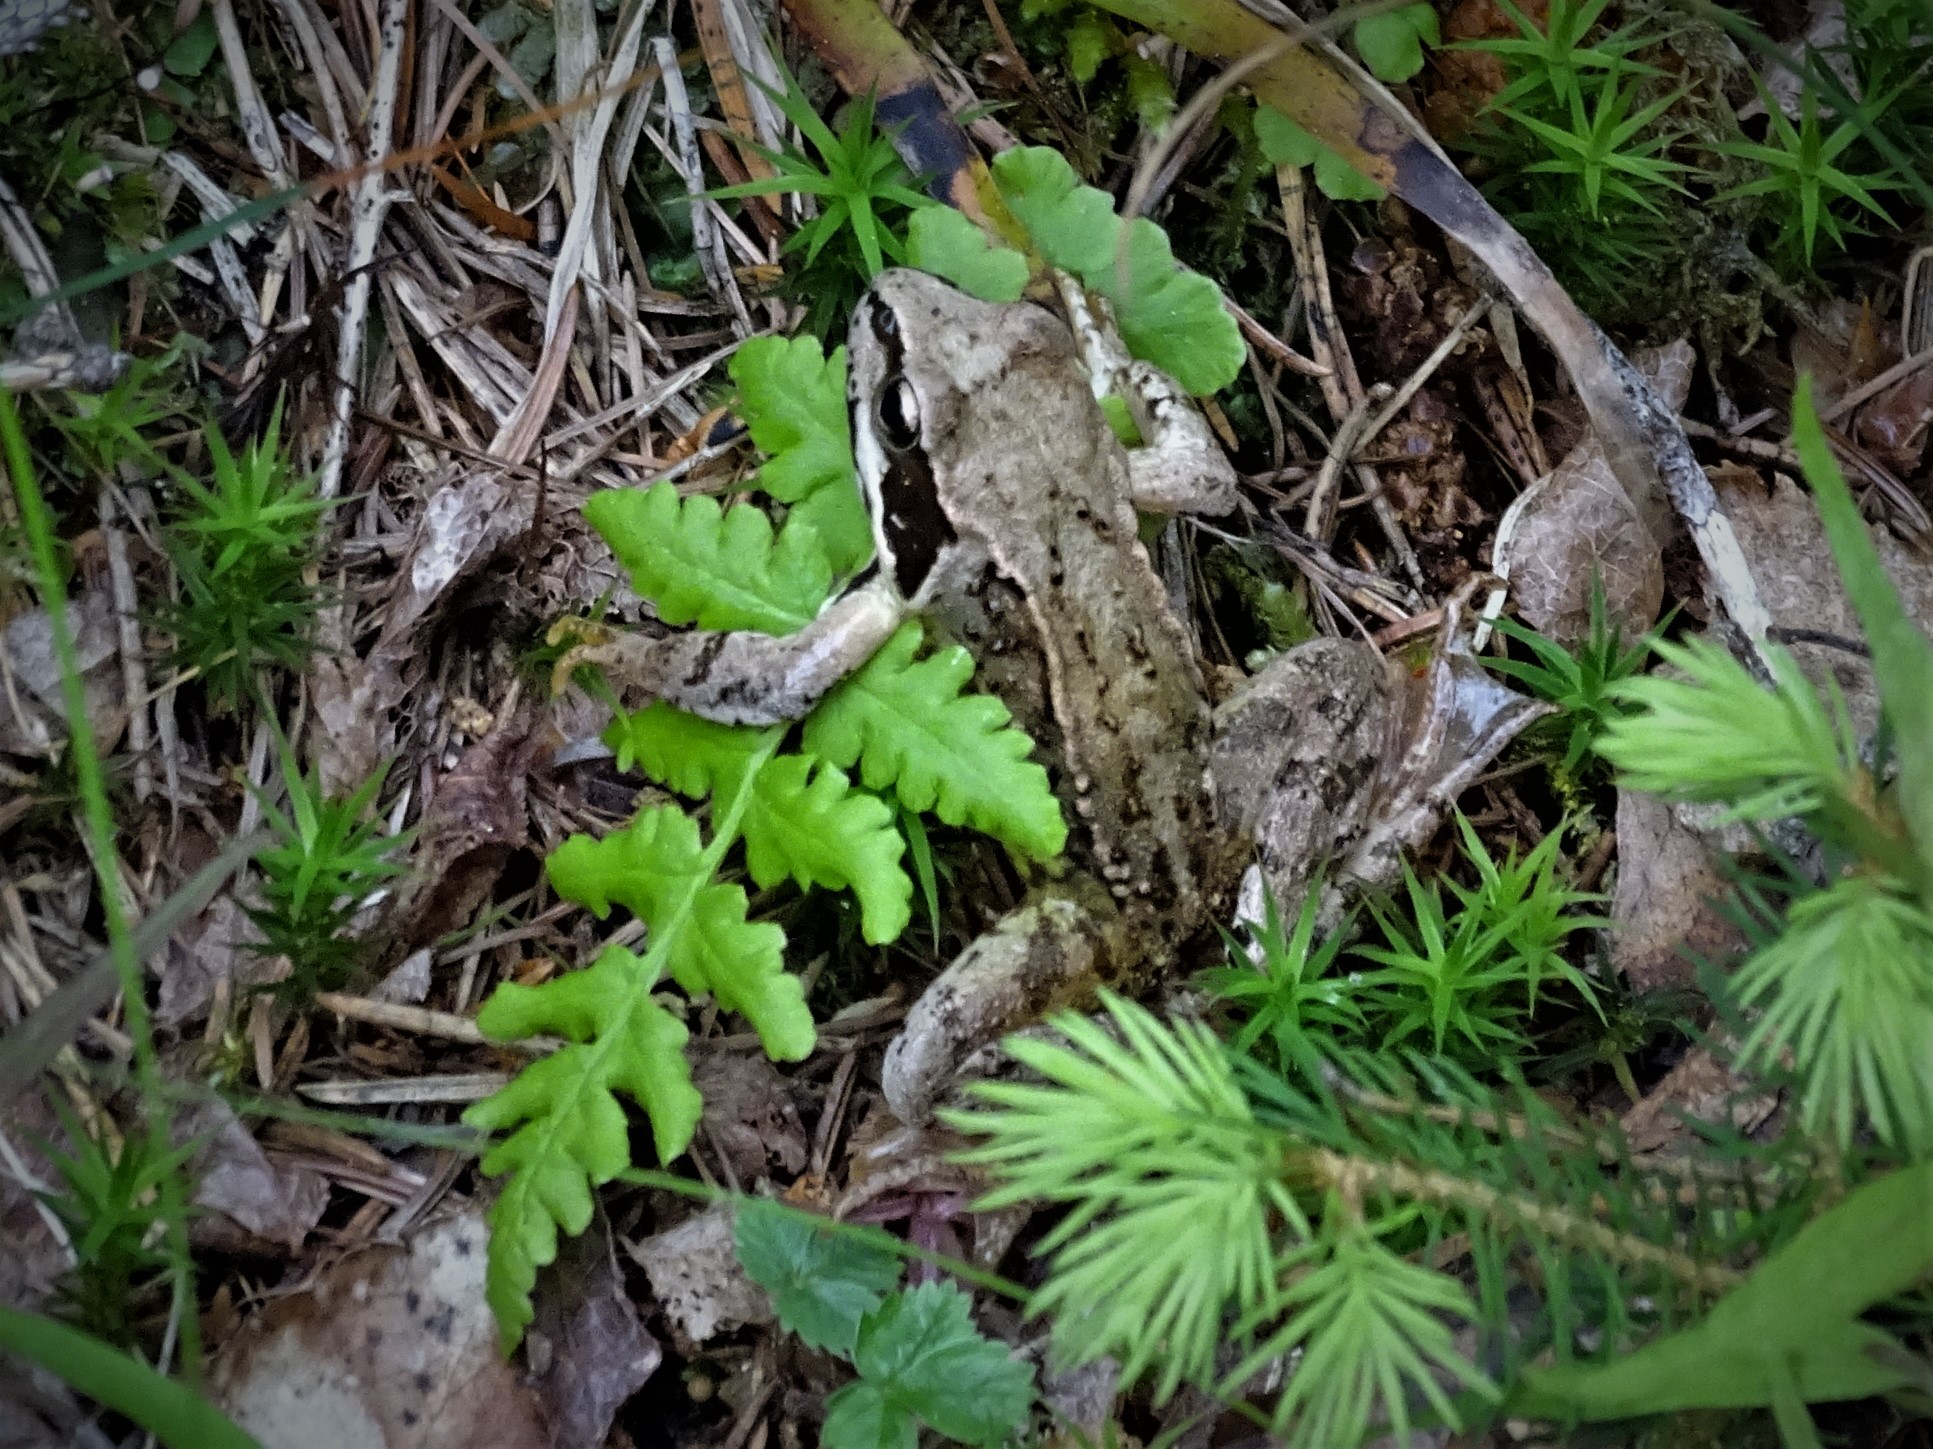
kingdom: Animalia
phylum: Chordata
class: Amphibia
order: Anura
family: Ranidae
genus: Rana
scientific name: Rana temporaria
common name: Common frog
